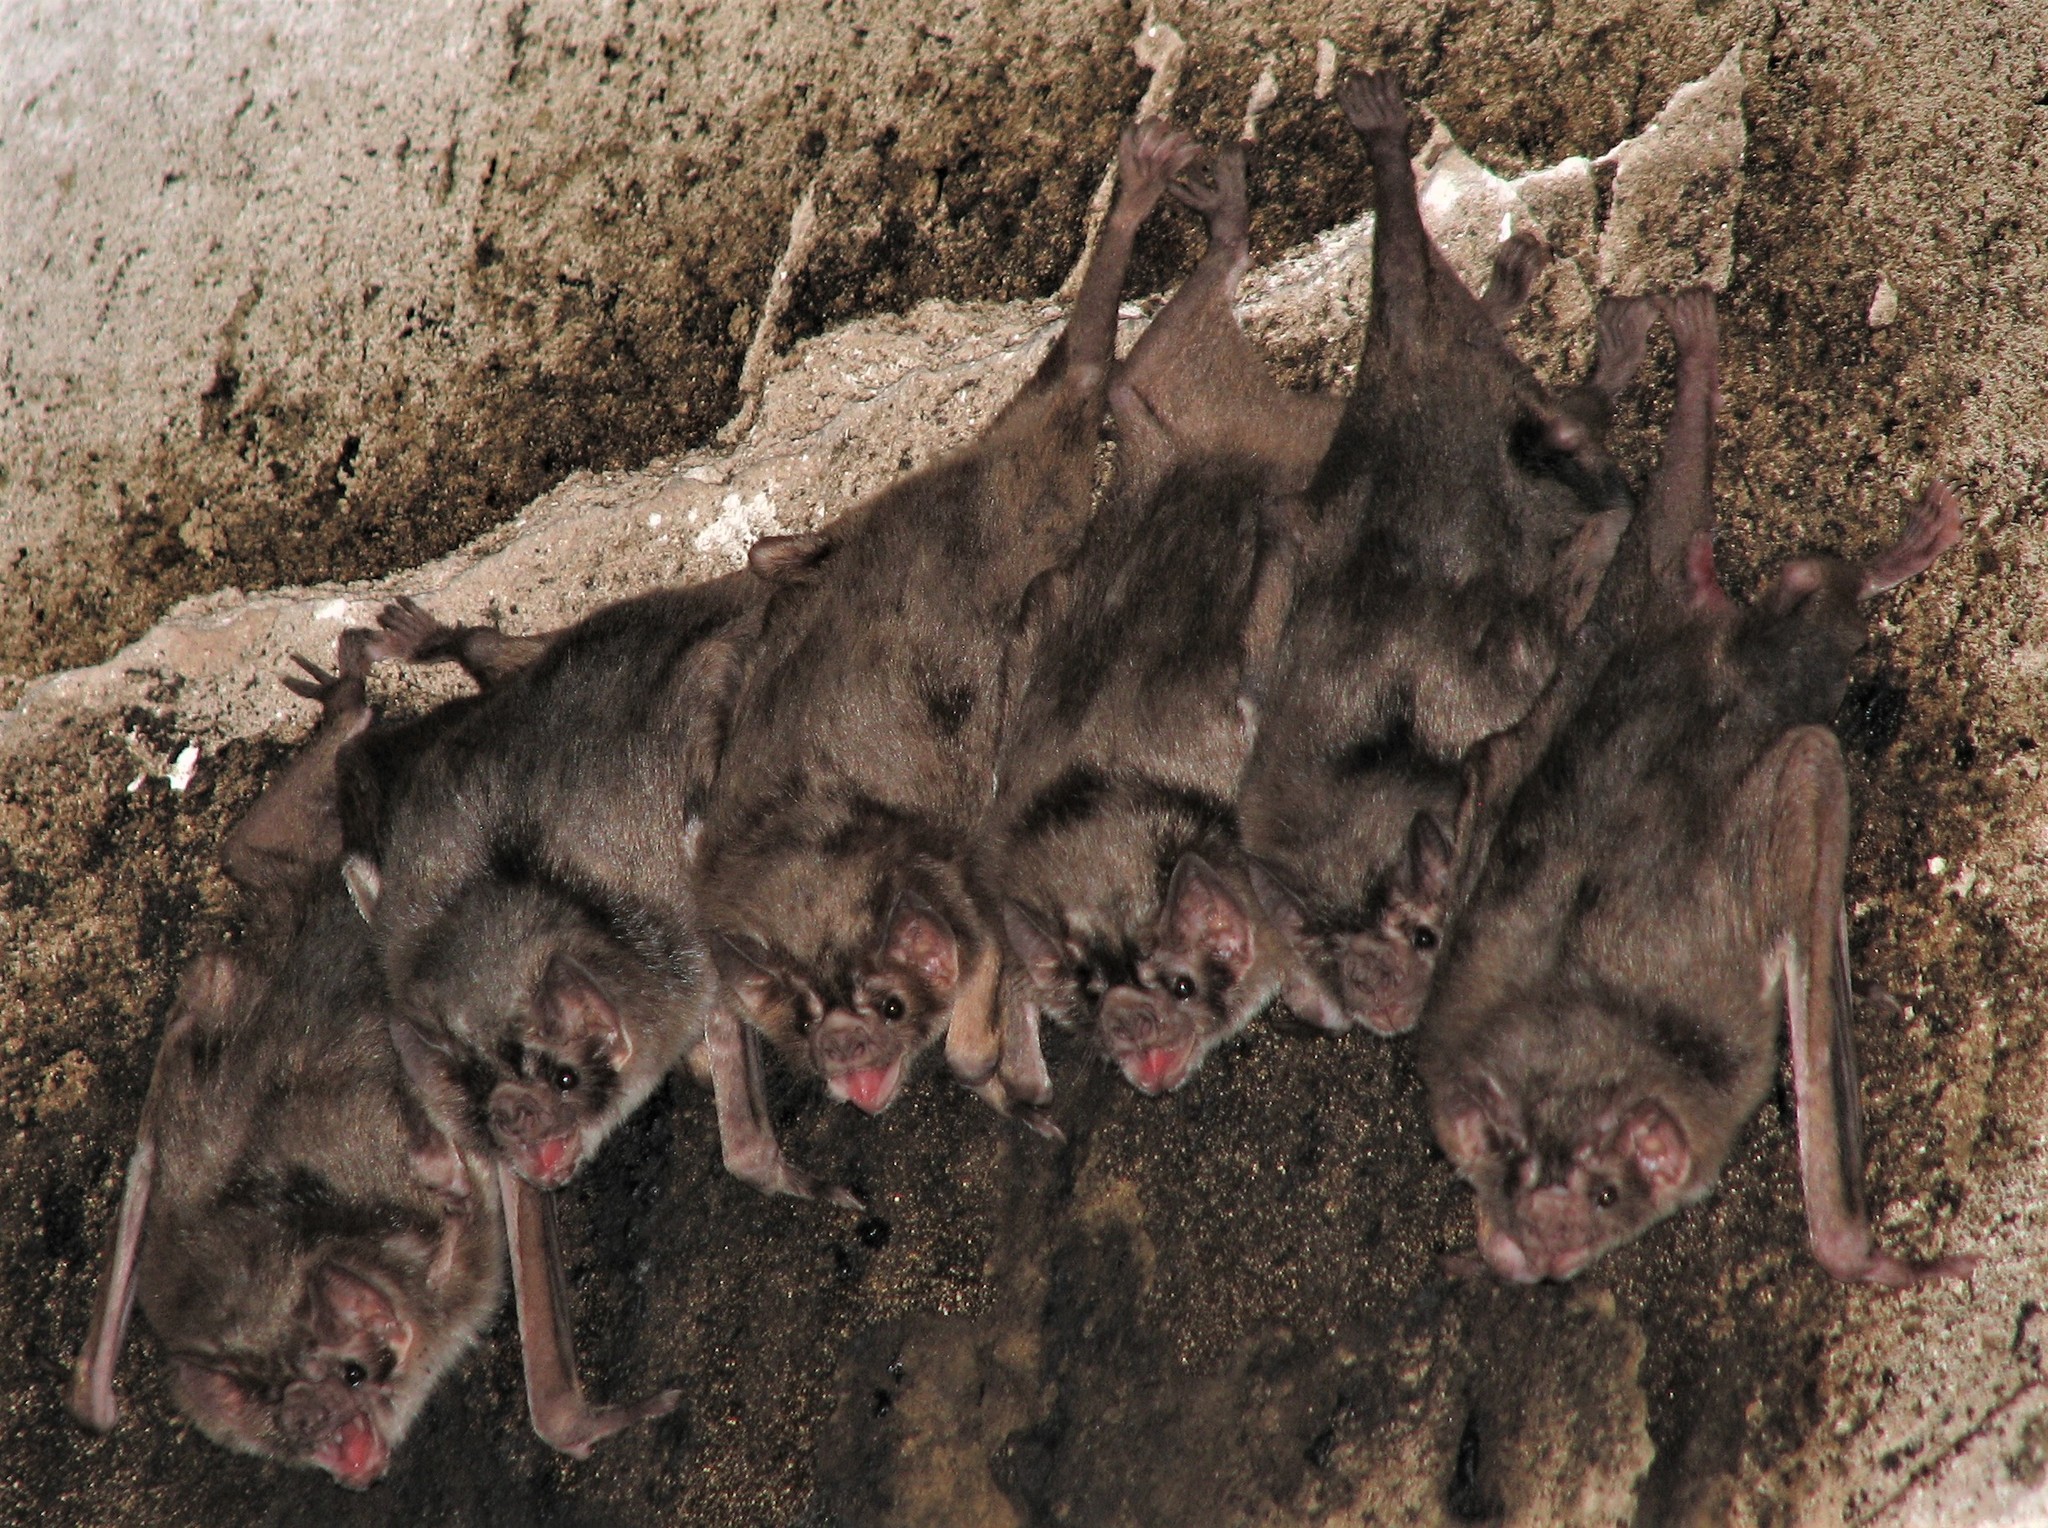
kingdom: Animalia
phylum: Chordata
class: Mammalia
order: Chiroptera
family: Phyllostomidae
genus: Desmodus
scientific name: Desmodus rotundus
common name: Common vampire bat
